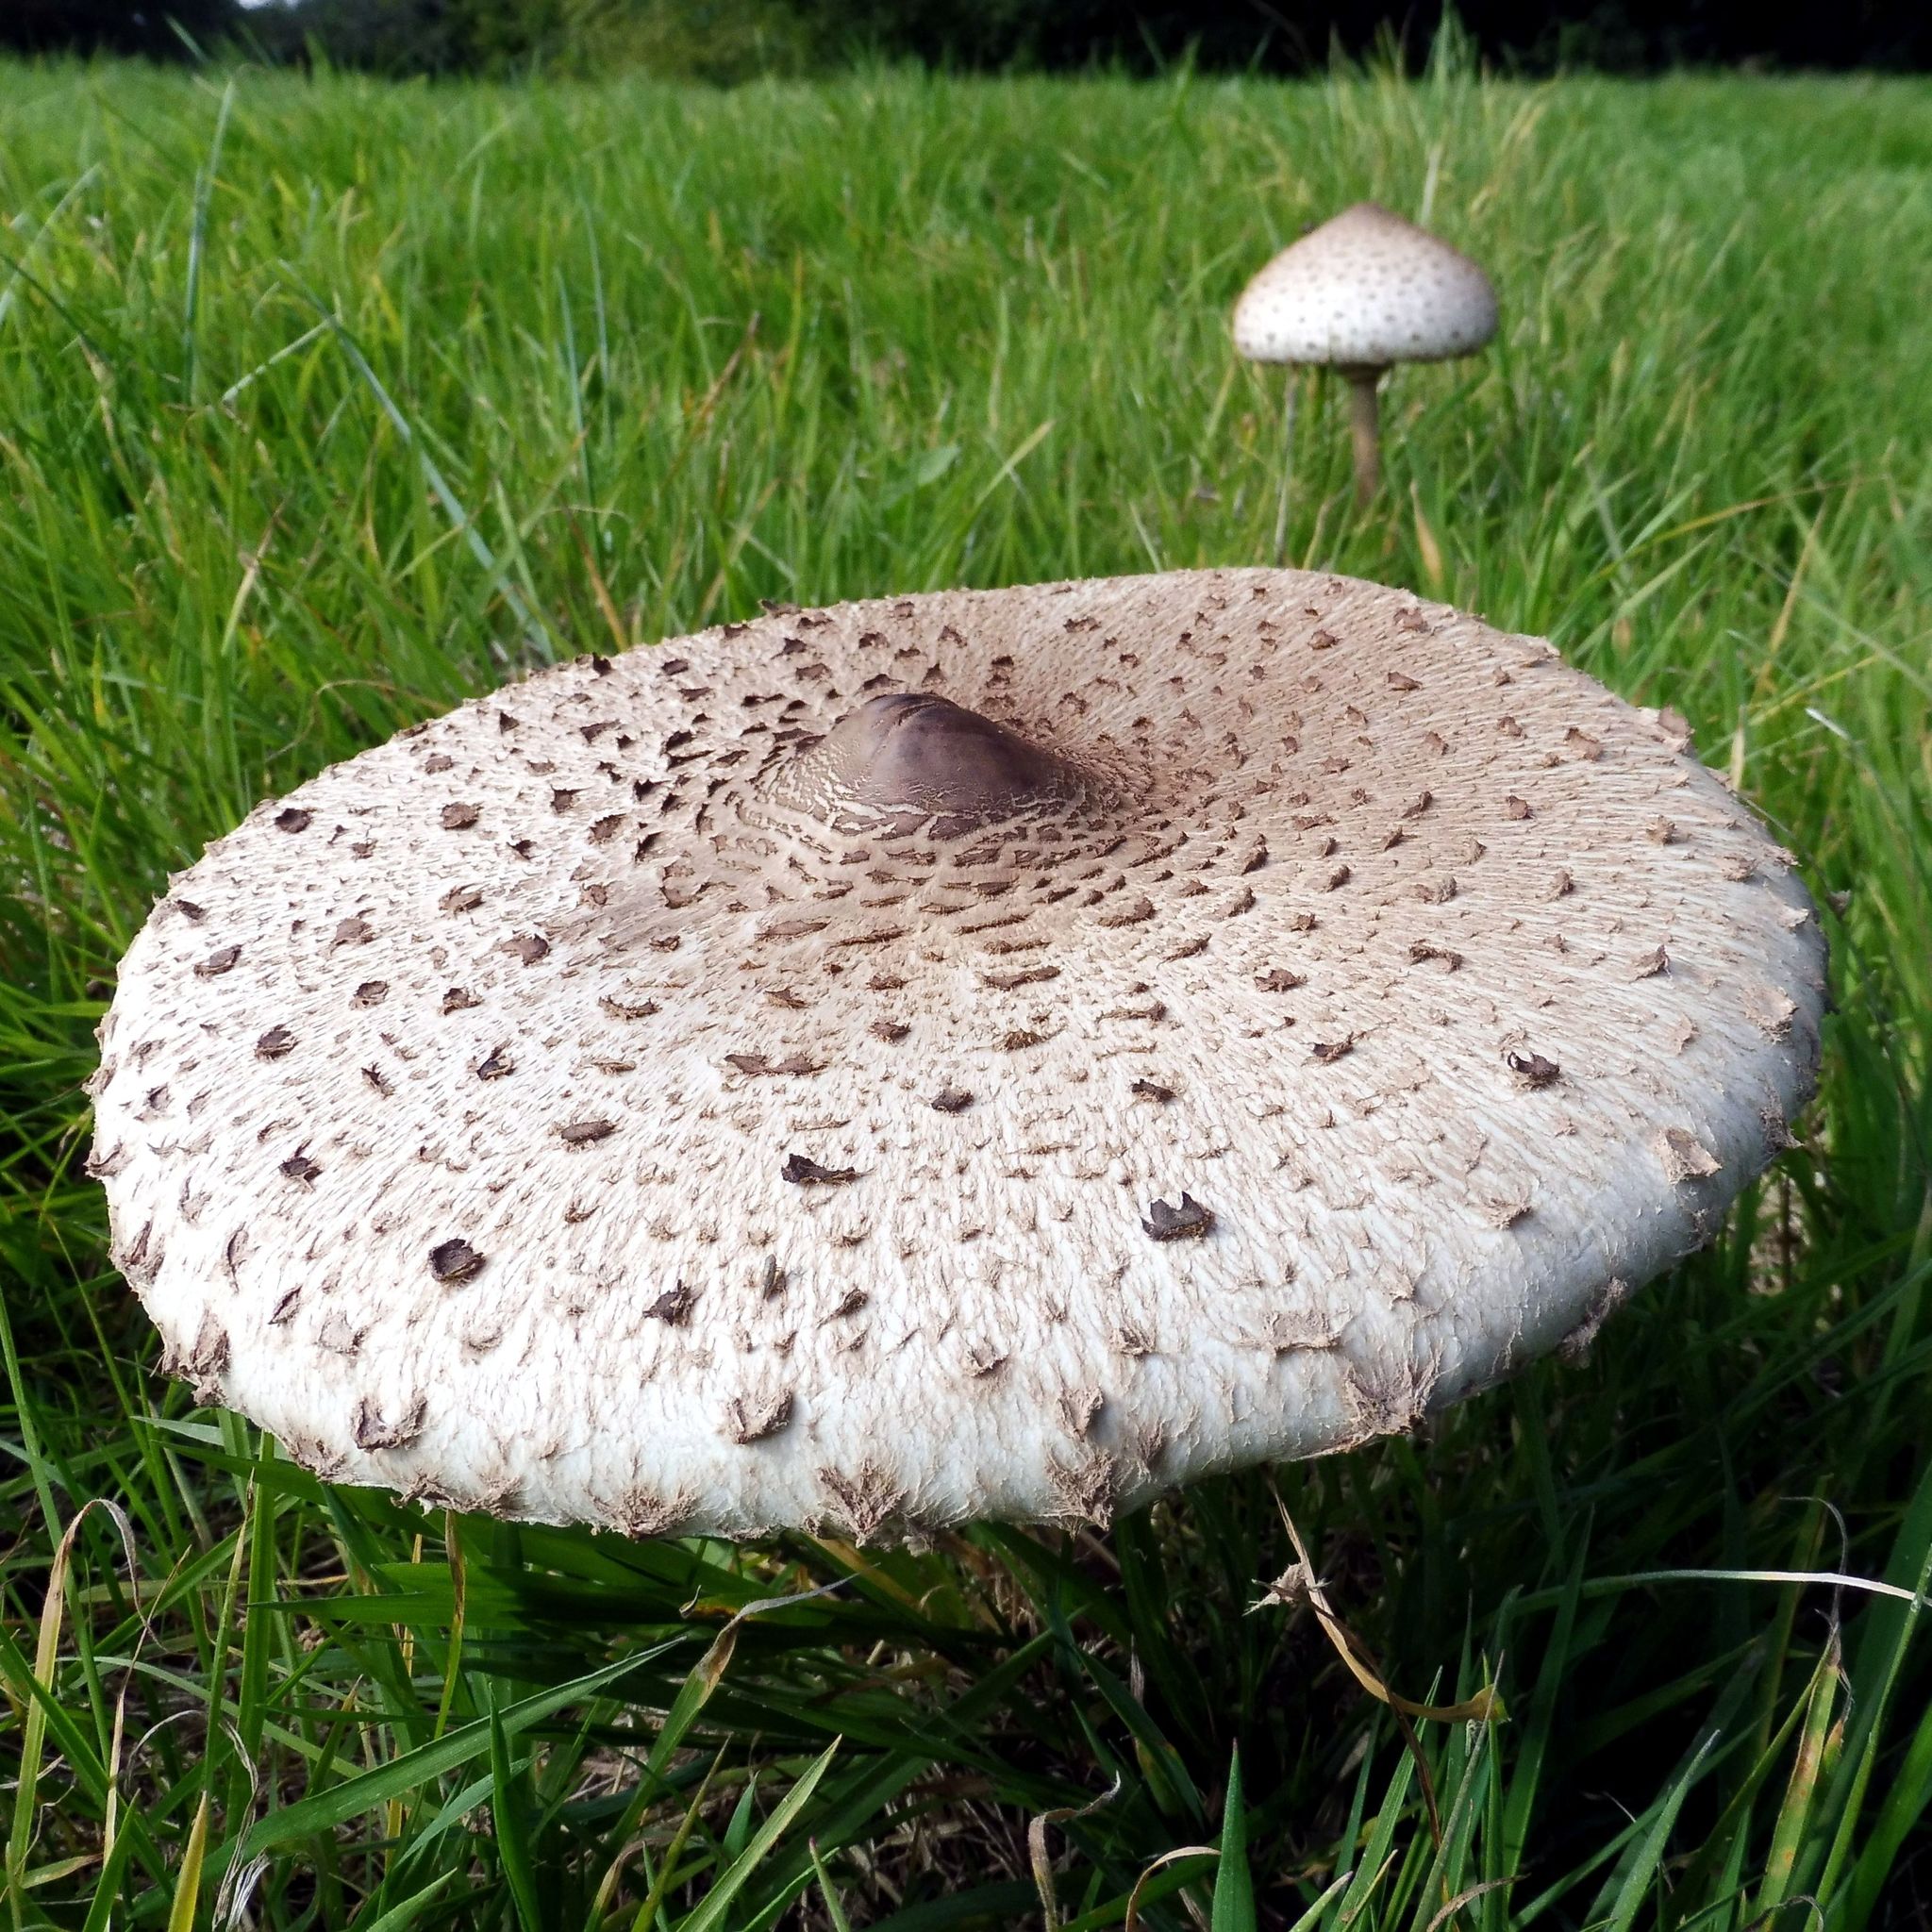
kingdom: Fungi
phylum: Basidiomycota
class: Agaricomycetes
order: Agaricales
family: Agaricaceae
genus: Macrolepiota
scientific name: Macrolepiota procera
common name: Parasol
